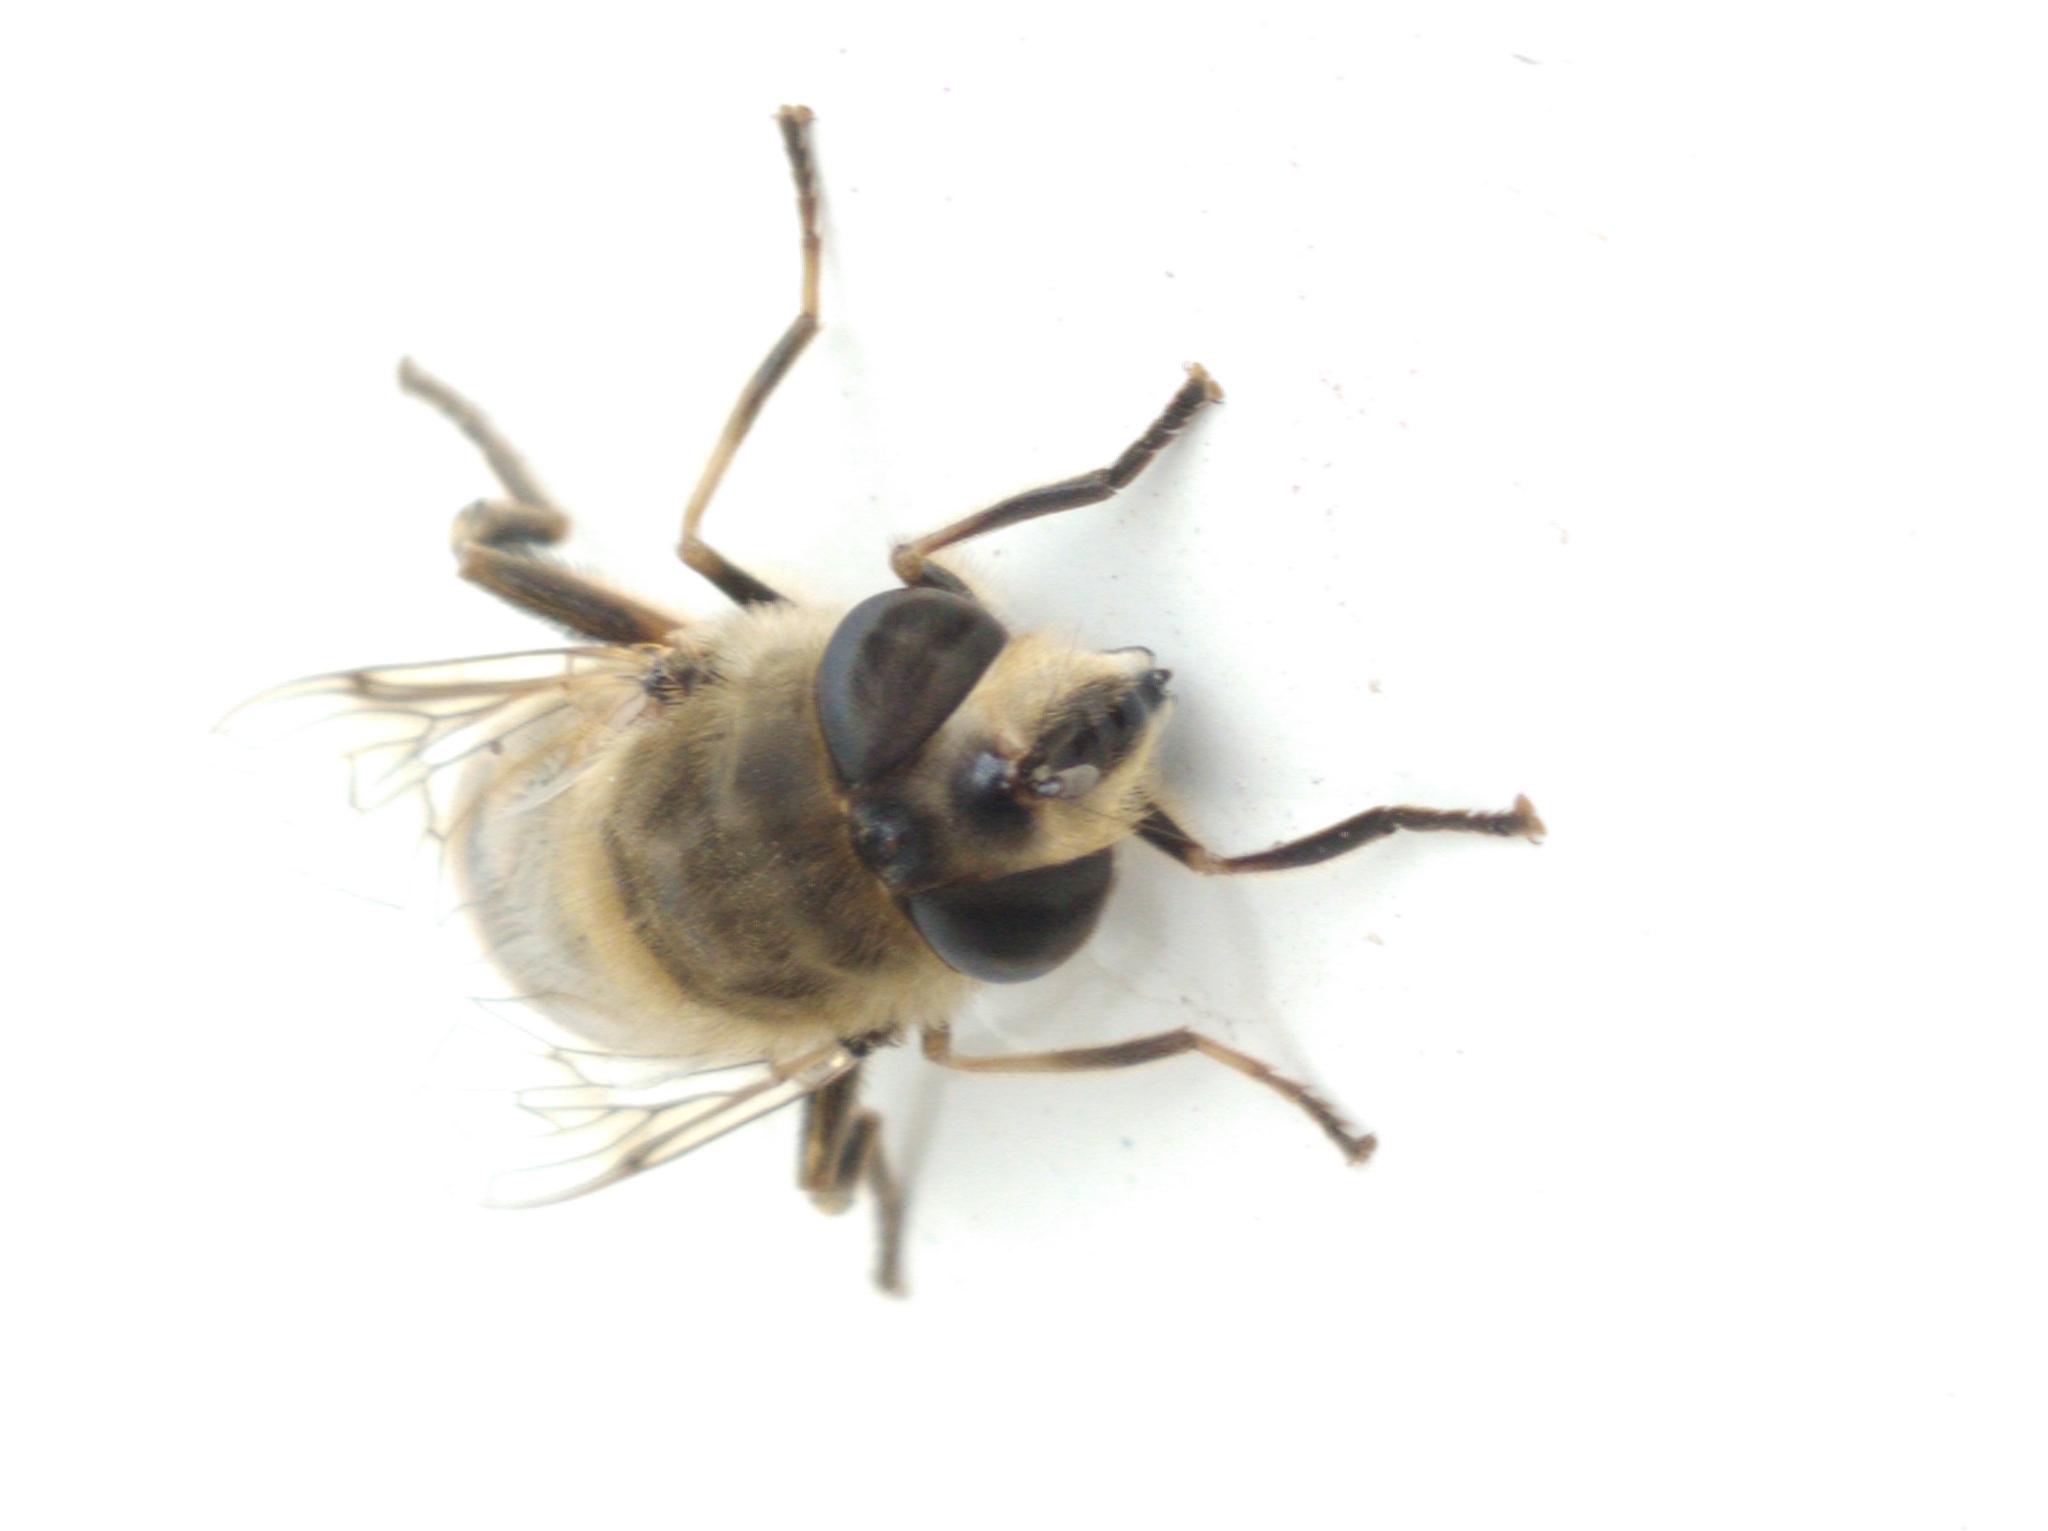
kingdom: Animalia
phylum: Arthropoda
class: Insecta
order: Diptera
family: Syrphidae
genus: Eristalis
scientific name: Eristalis tenax
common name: Drone fly
